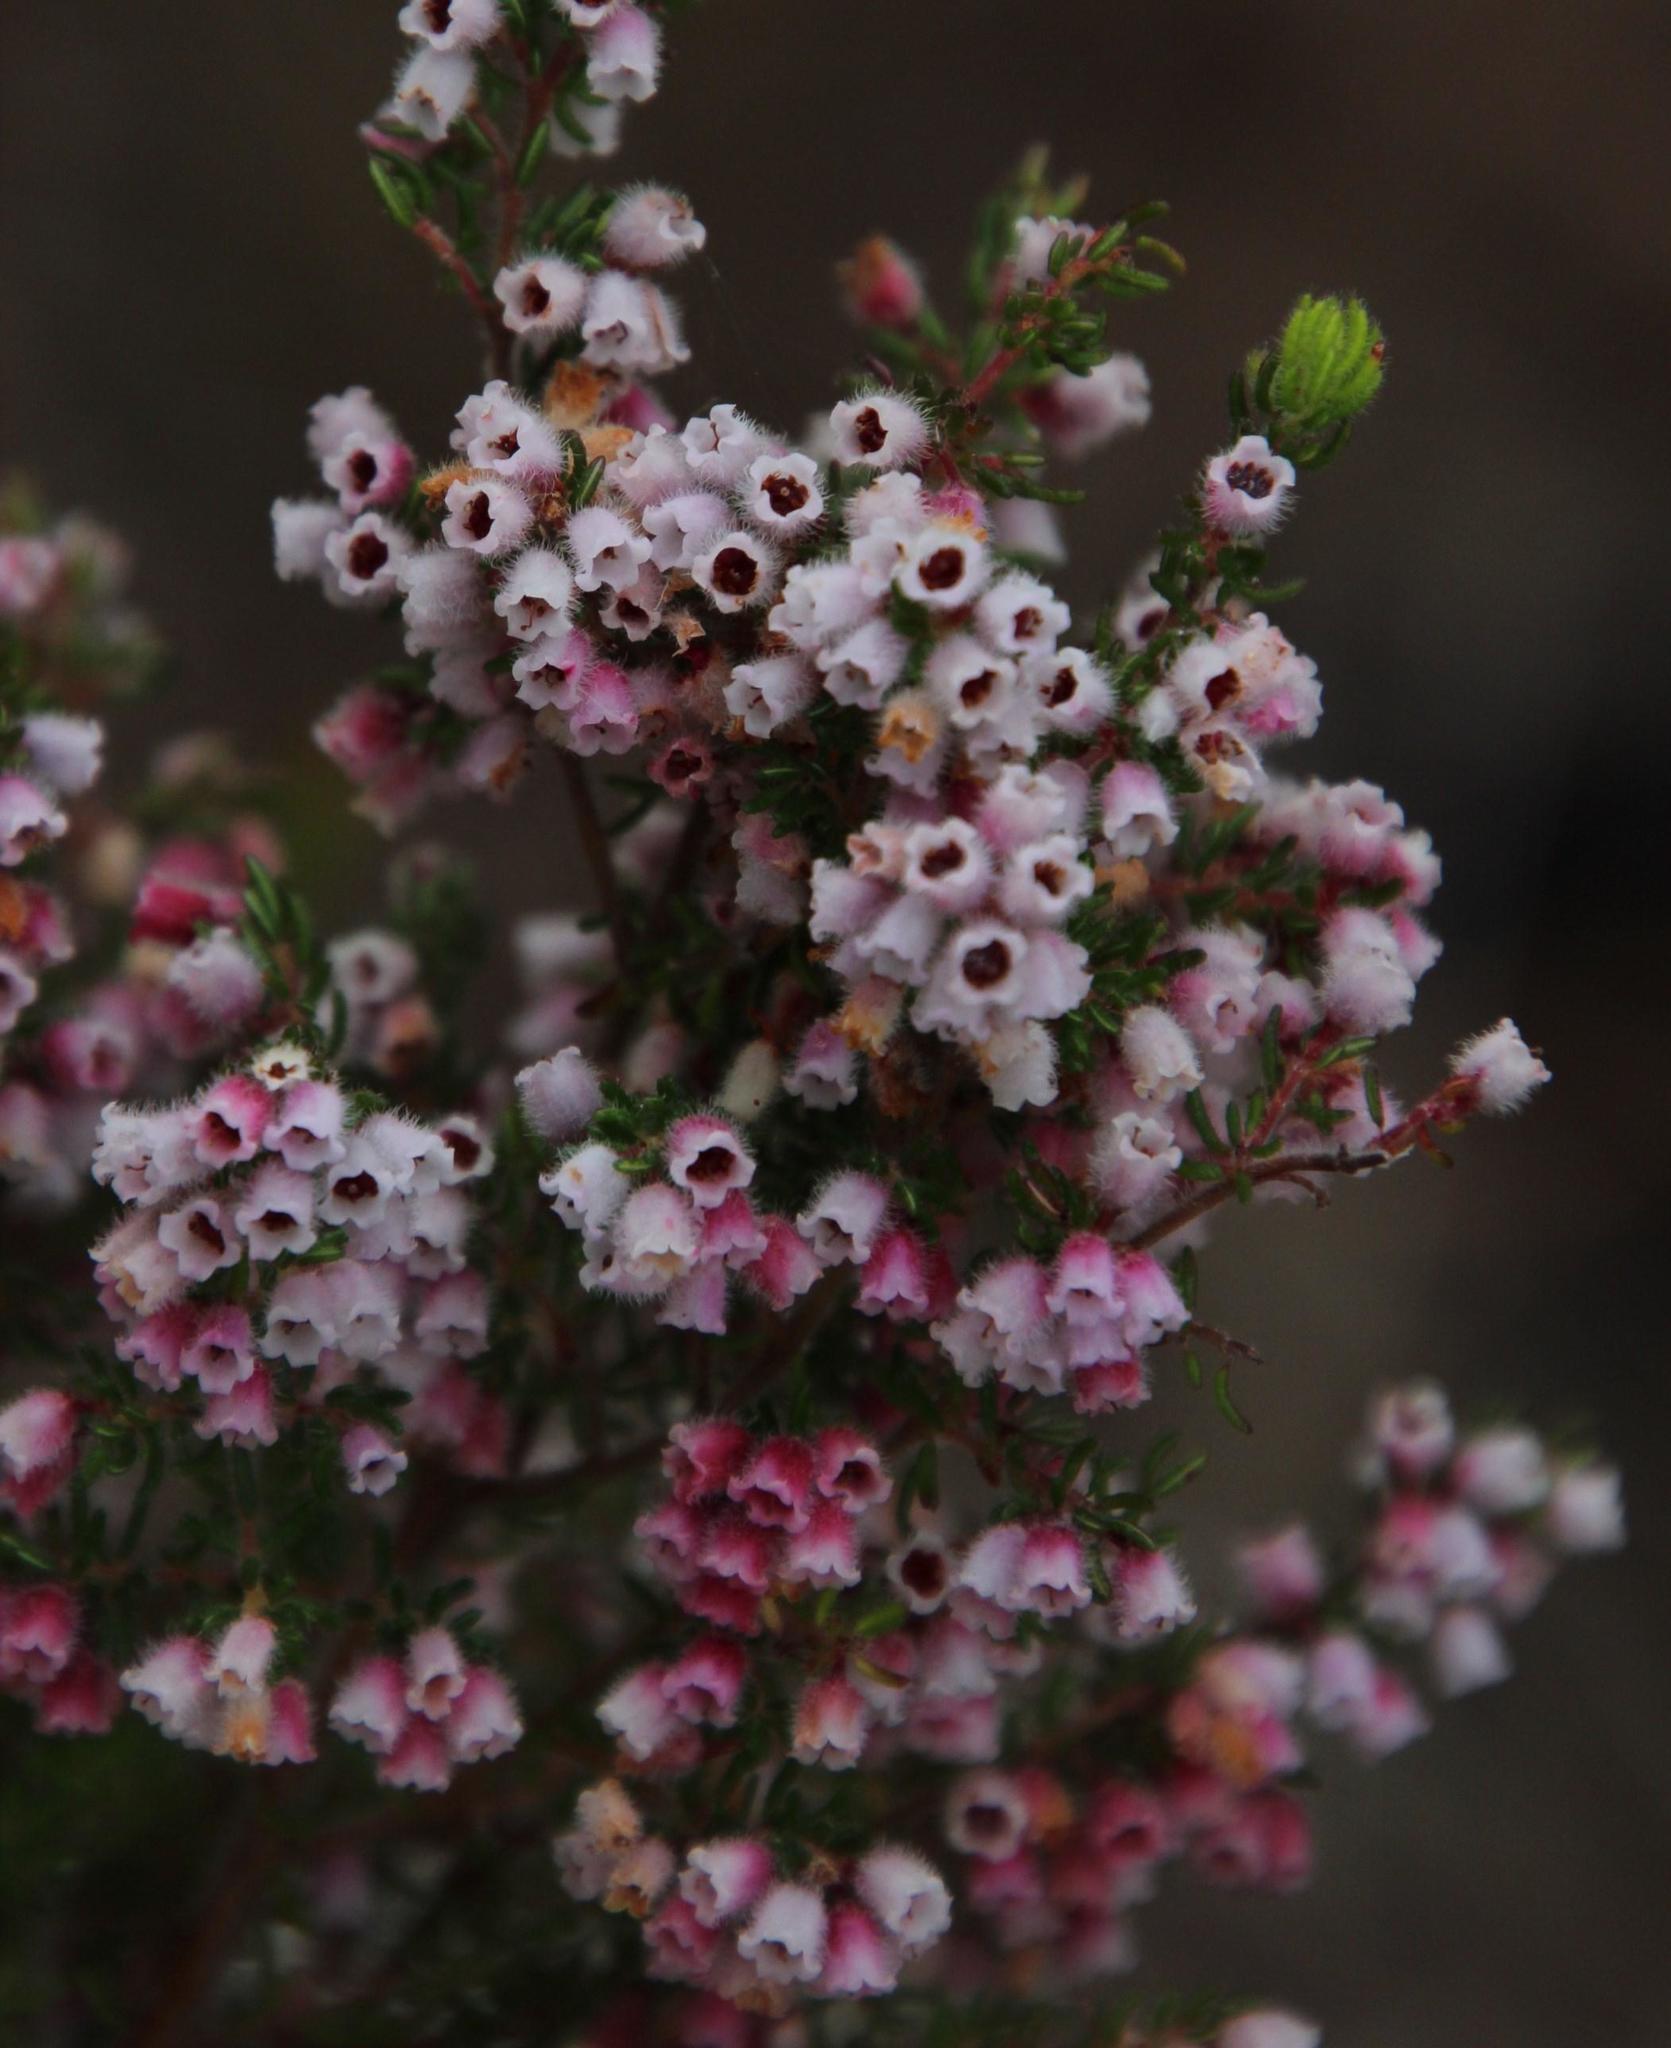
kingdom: Plantae
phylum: Tracheophyta
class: Magnoliopsida
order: Ericales
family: Ericaceae
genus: Erica
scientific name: Erica parviflora
